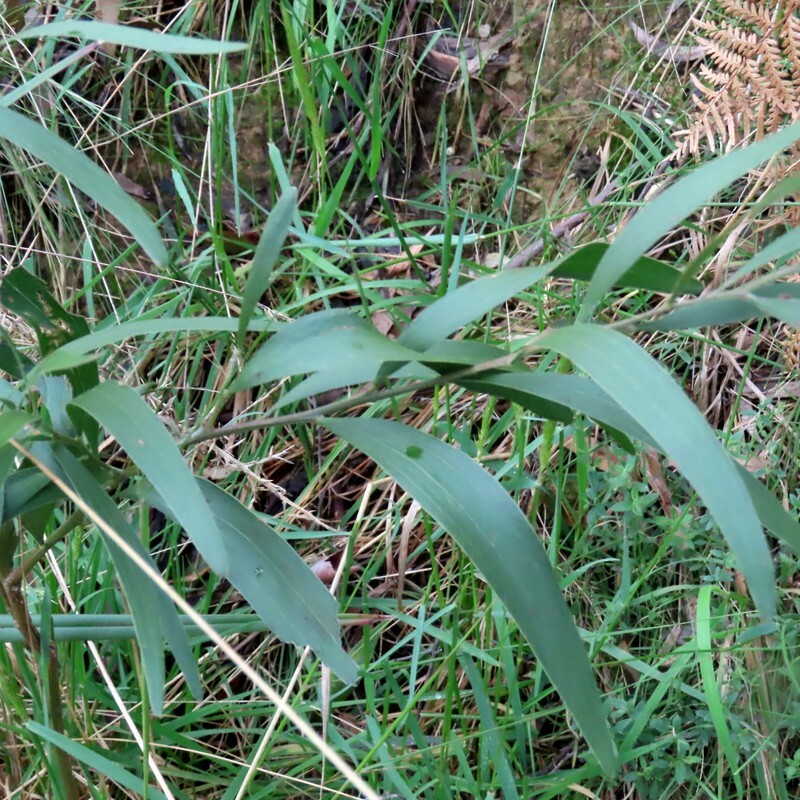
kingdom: Plantae
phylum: Tracheophyta
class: Magnoliopsida
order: Fabales
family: Fabaceae
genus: Acacia
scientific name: Acacia melanoxylon
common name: Blackwood
